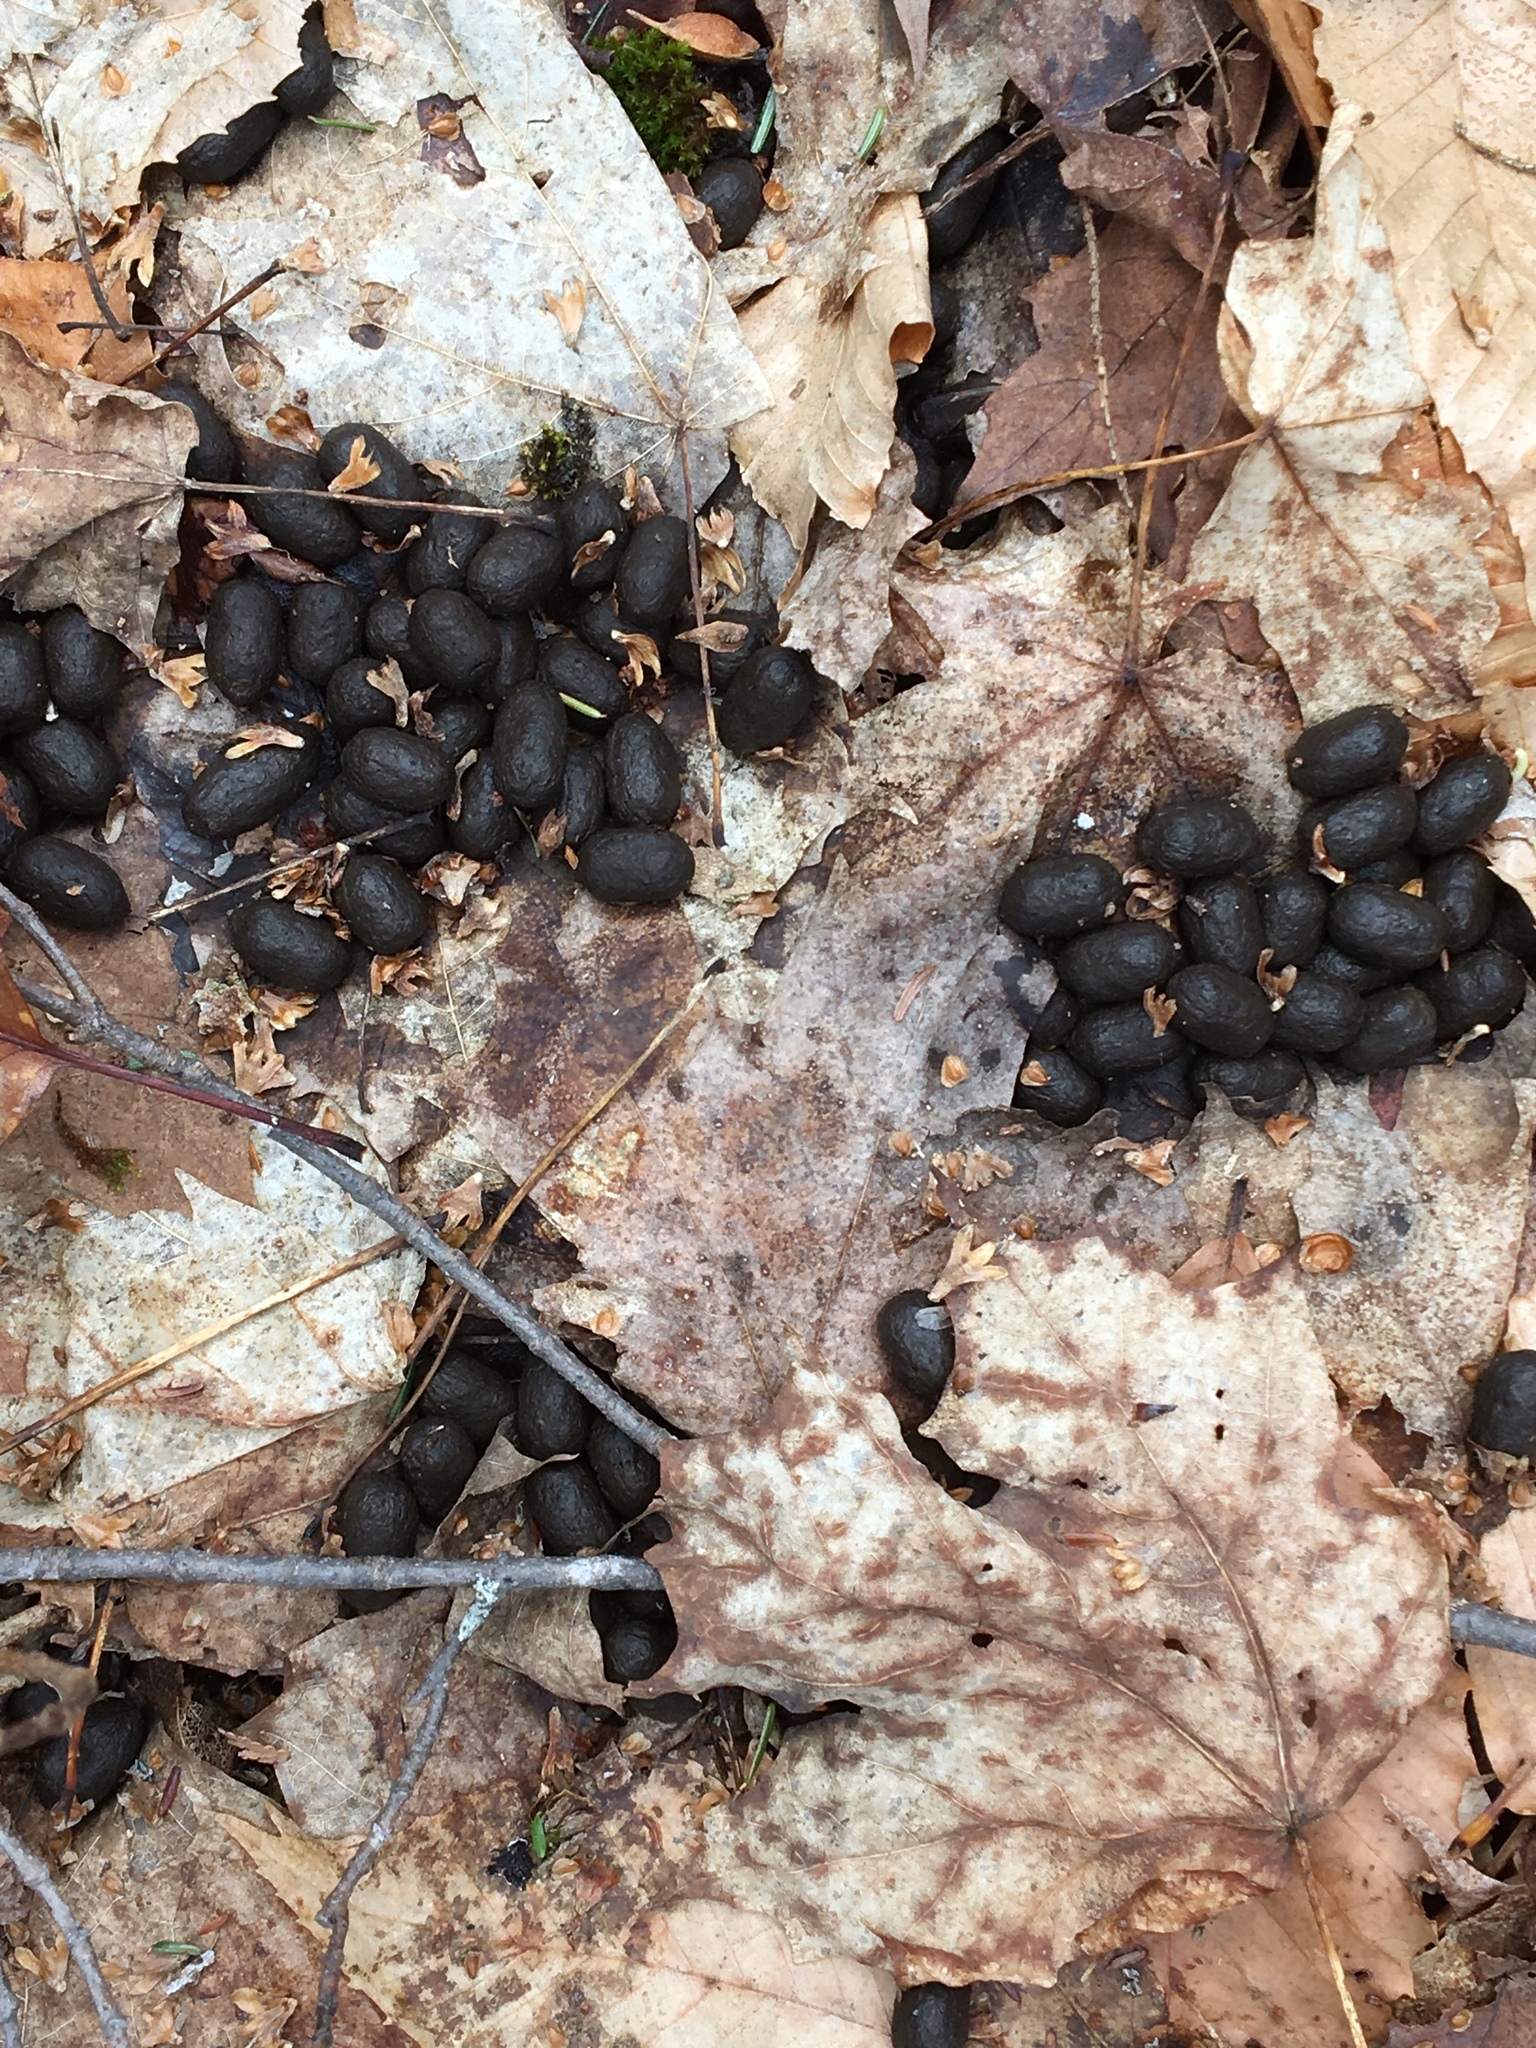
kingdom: Animalia
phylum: Chordata
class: Mammalia
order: Artiodactyla
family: Cervidae
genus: Odocoileus
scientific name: Odocoileus virginianus
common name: White-tailed deer
